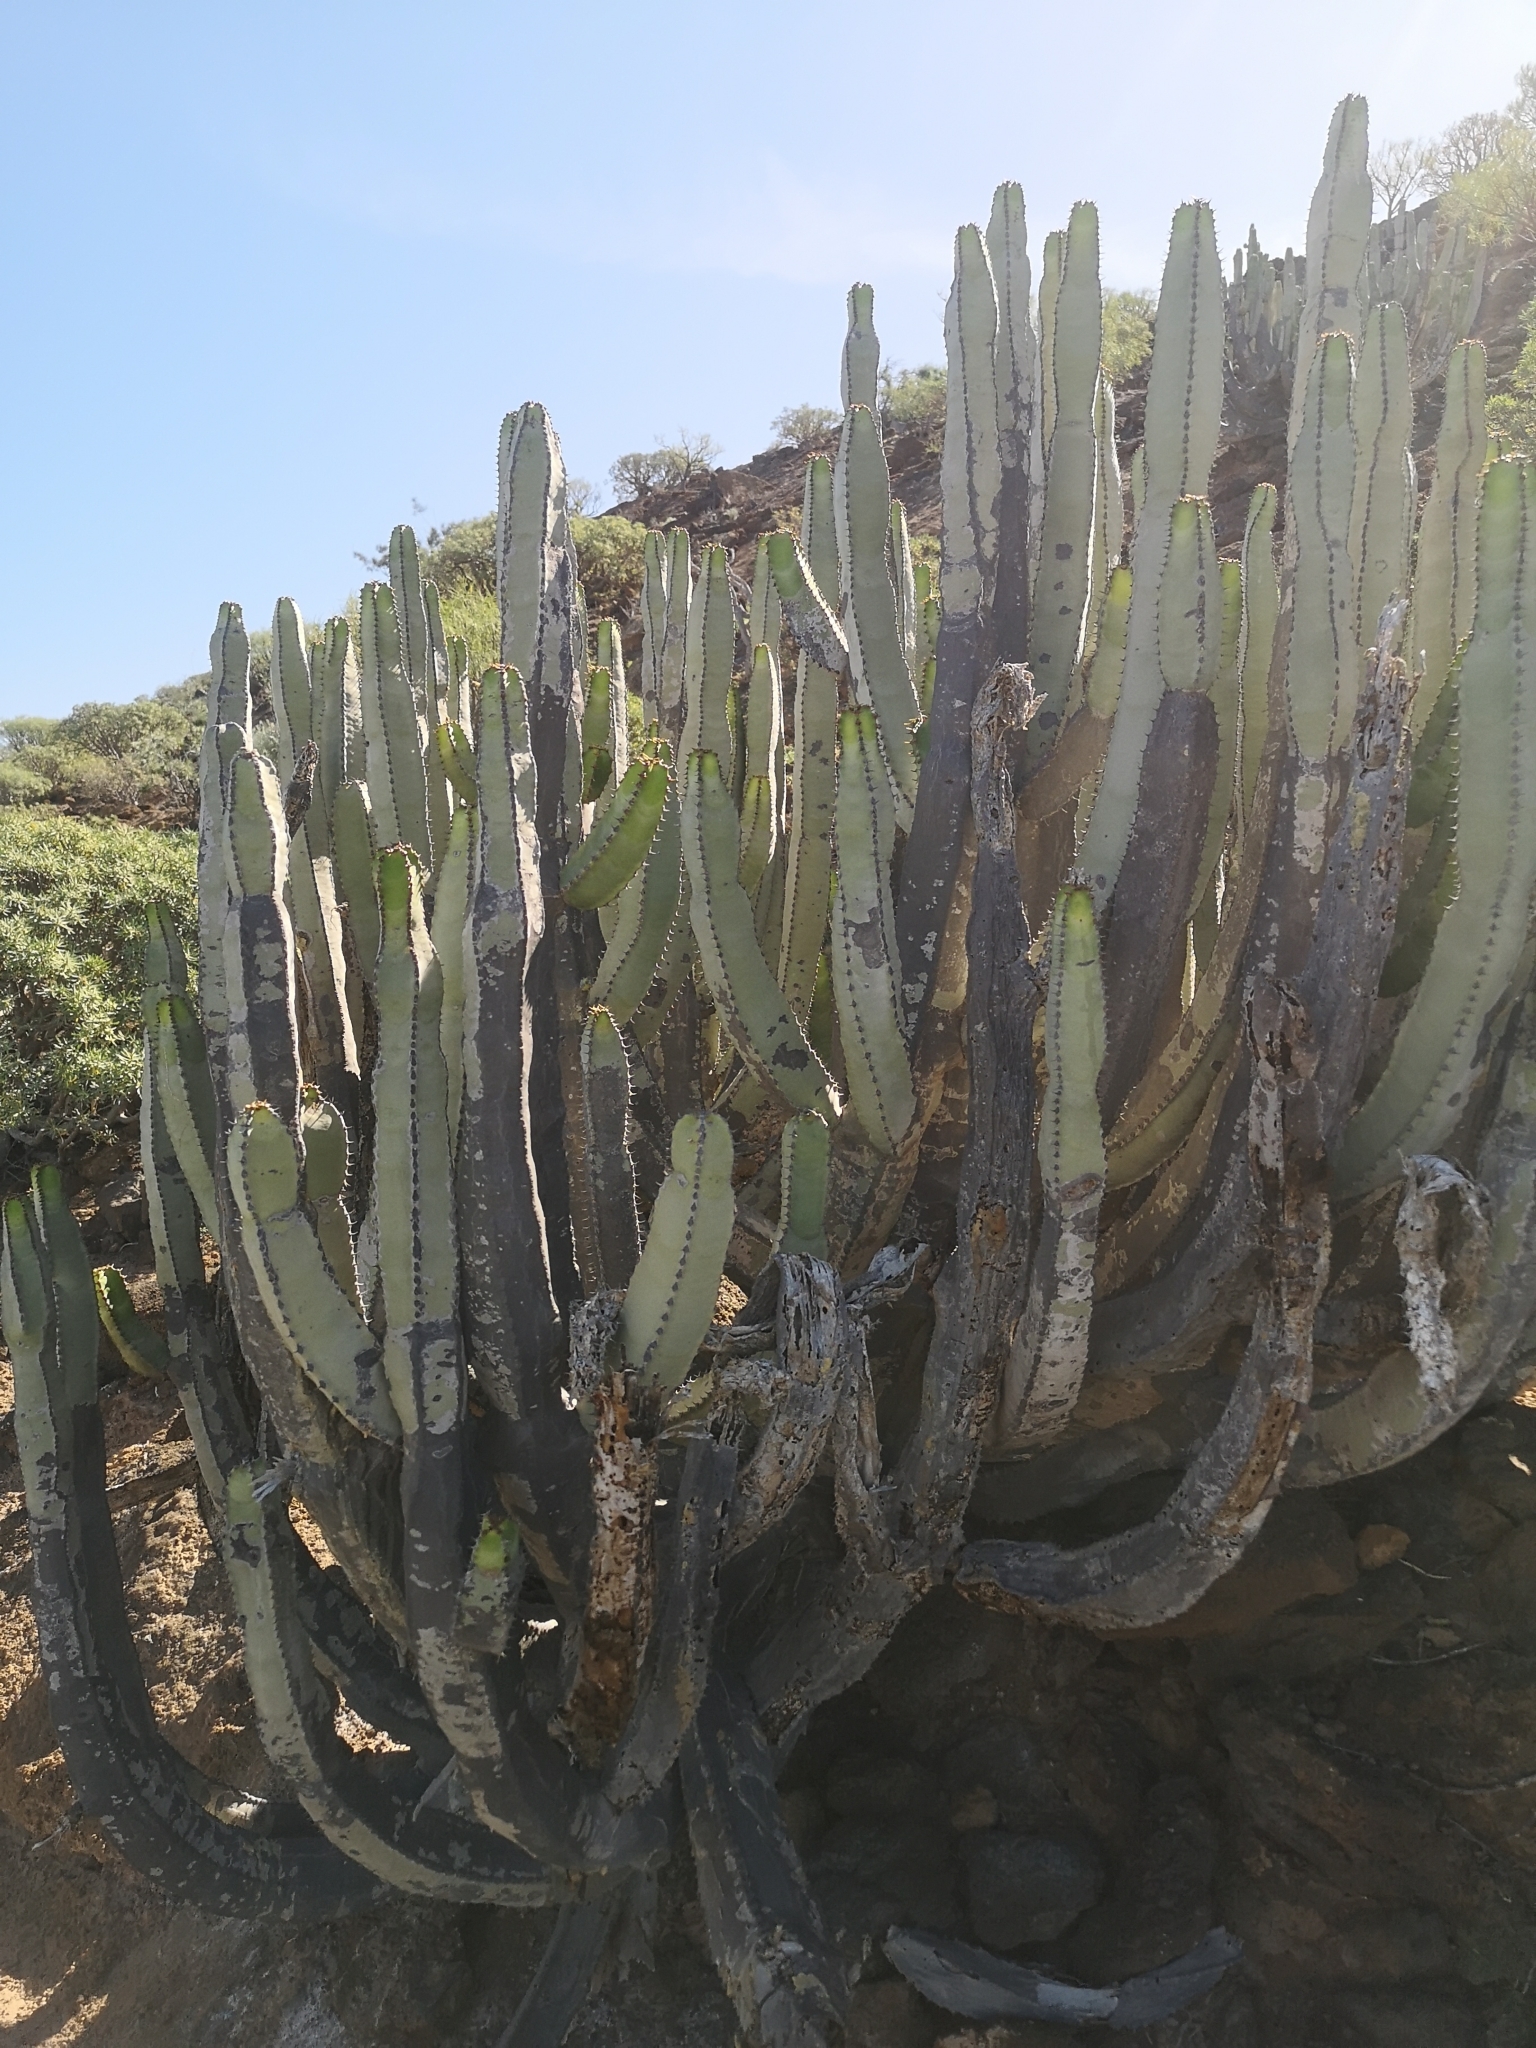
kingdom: Plantae
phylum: Tracheophyta
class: Magnoliopsida
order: Malpighiales
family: Euphorbiaceae
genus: Euphorbia
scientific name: Euphorbia canariensis
